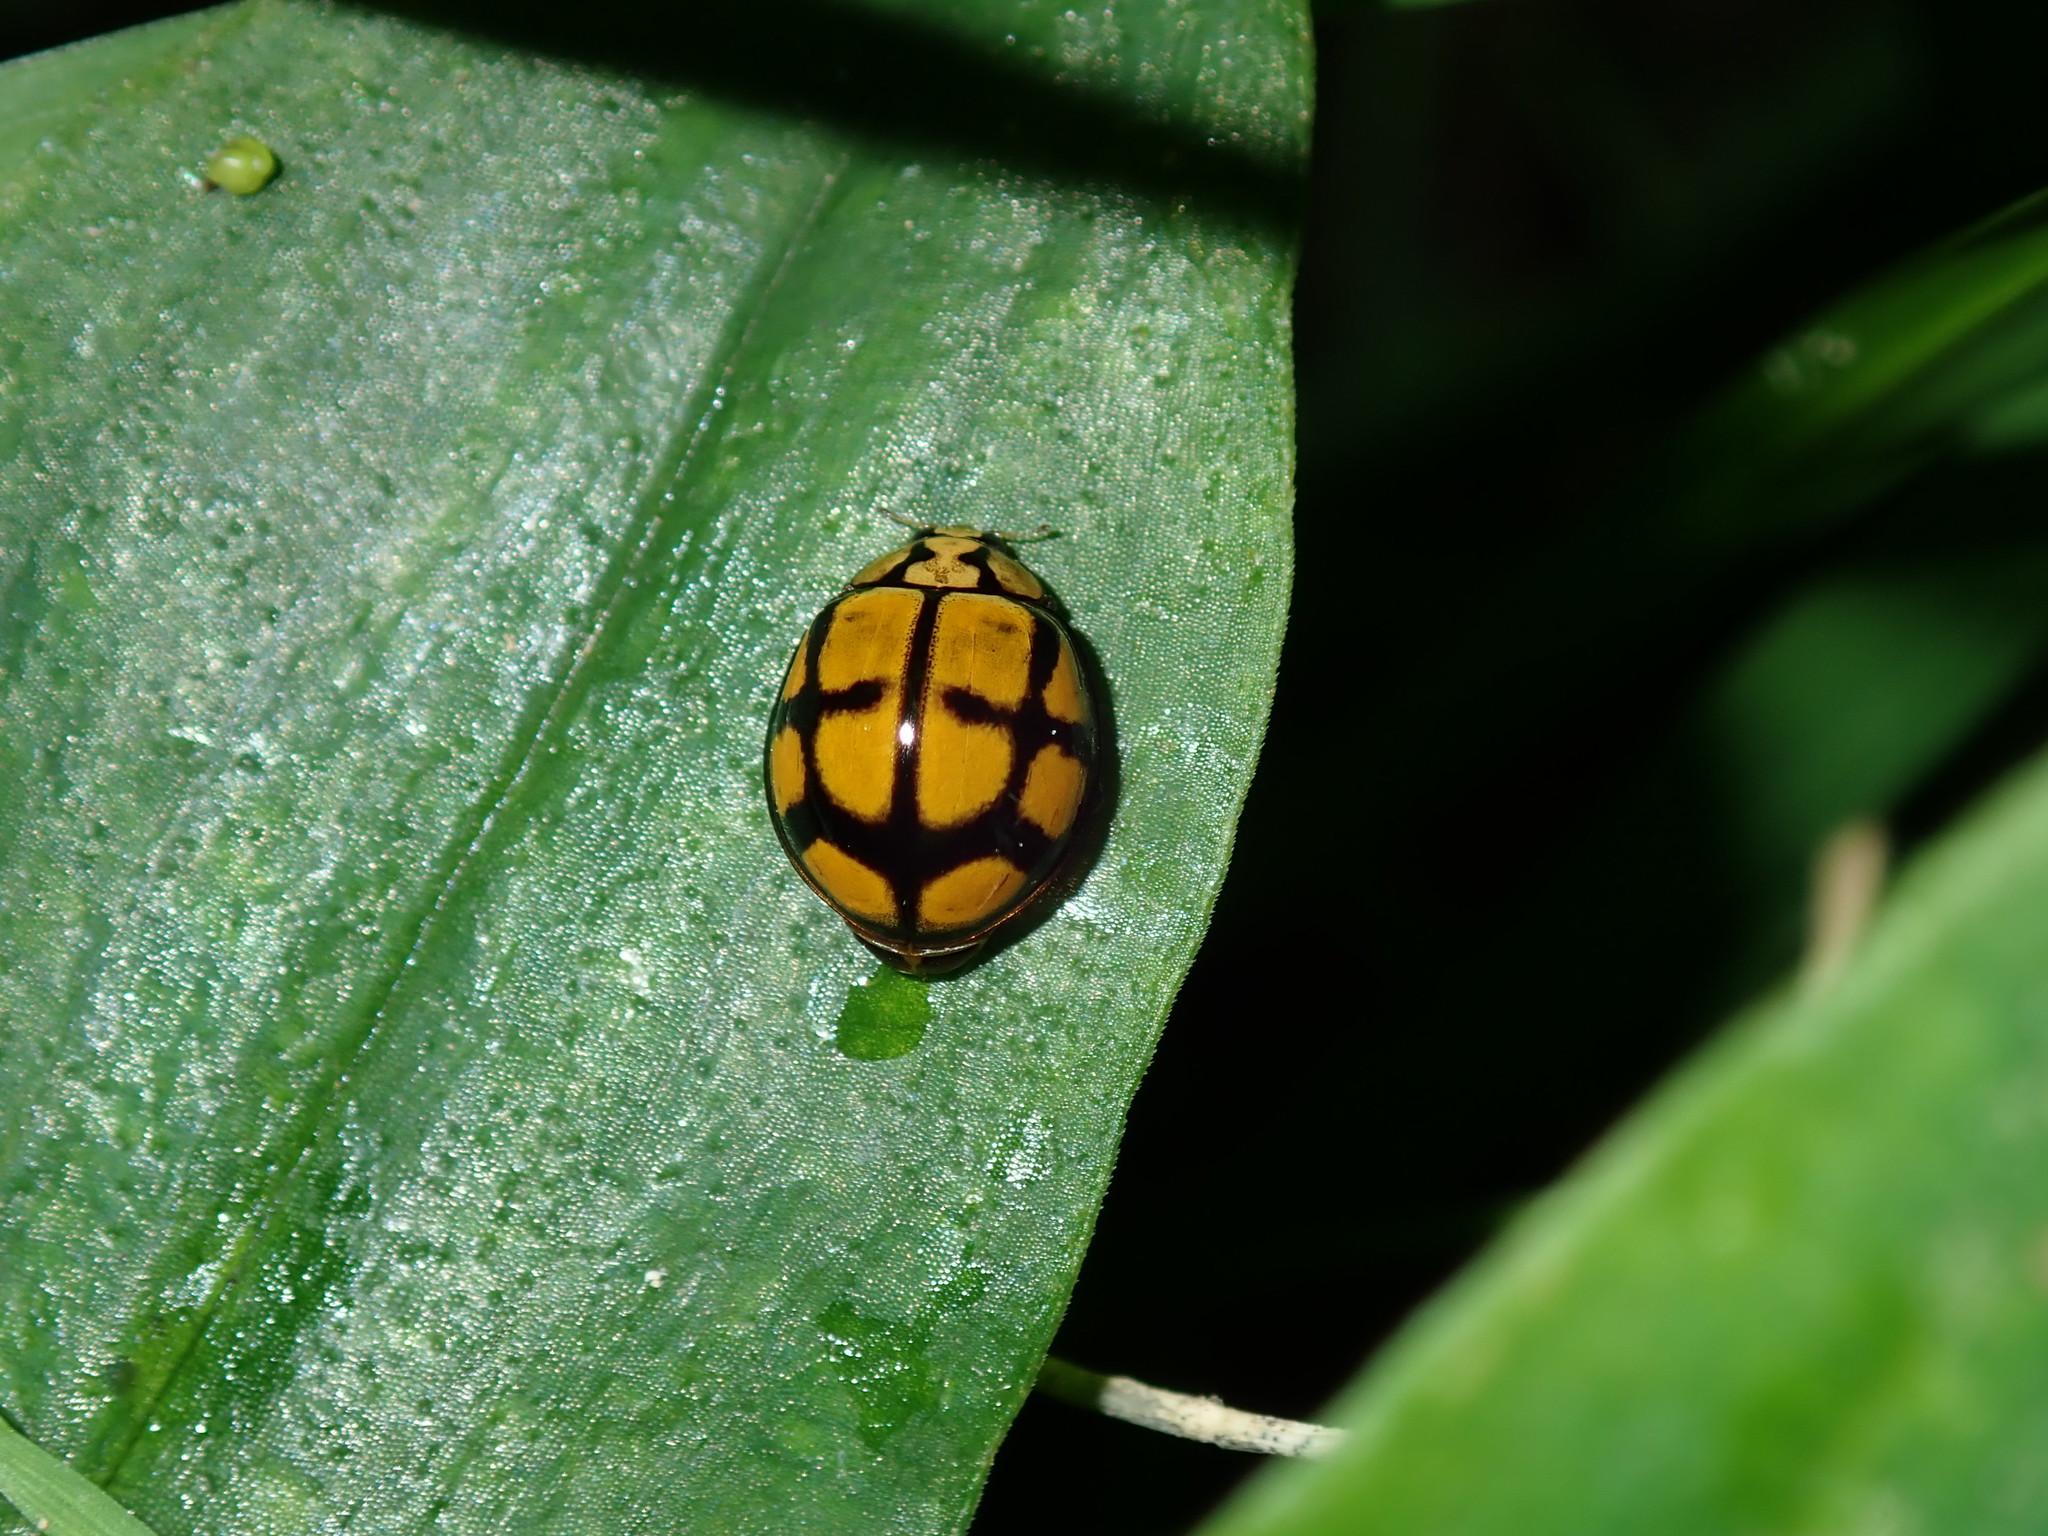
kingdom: Animalia
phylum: Arthropoda
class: Insecta
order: Coleoptera
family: Coccinellidae
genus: Harmonia
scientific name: Harmonia
